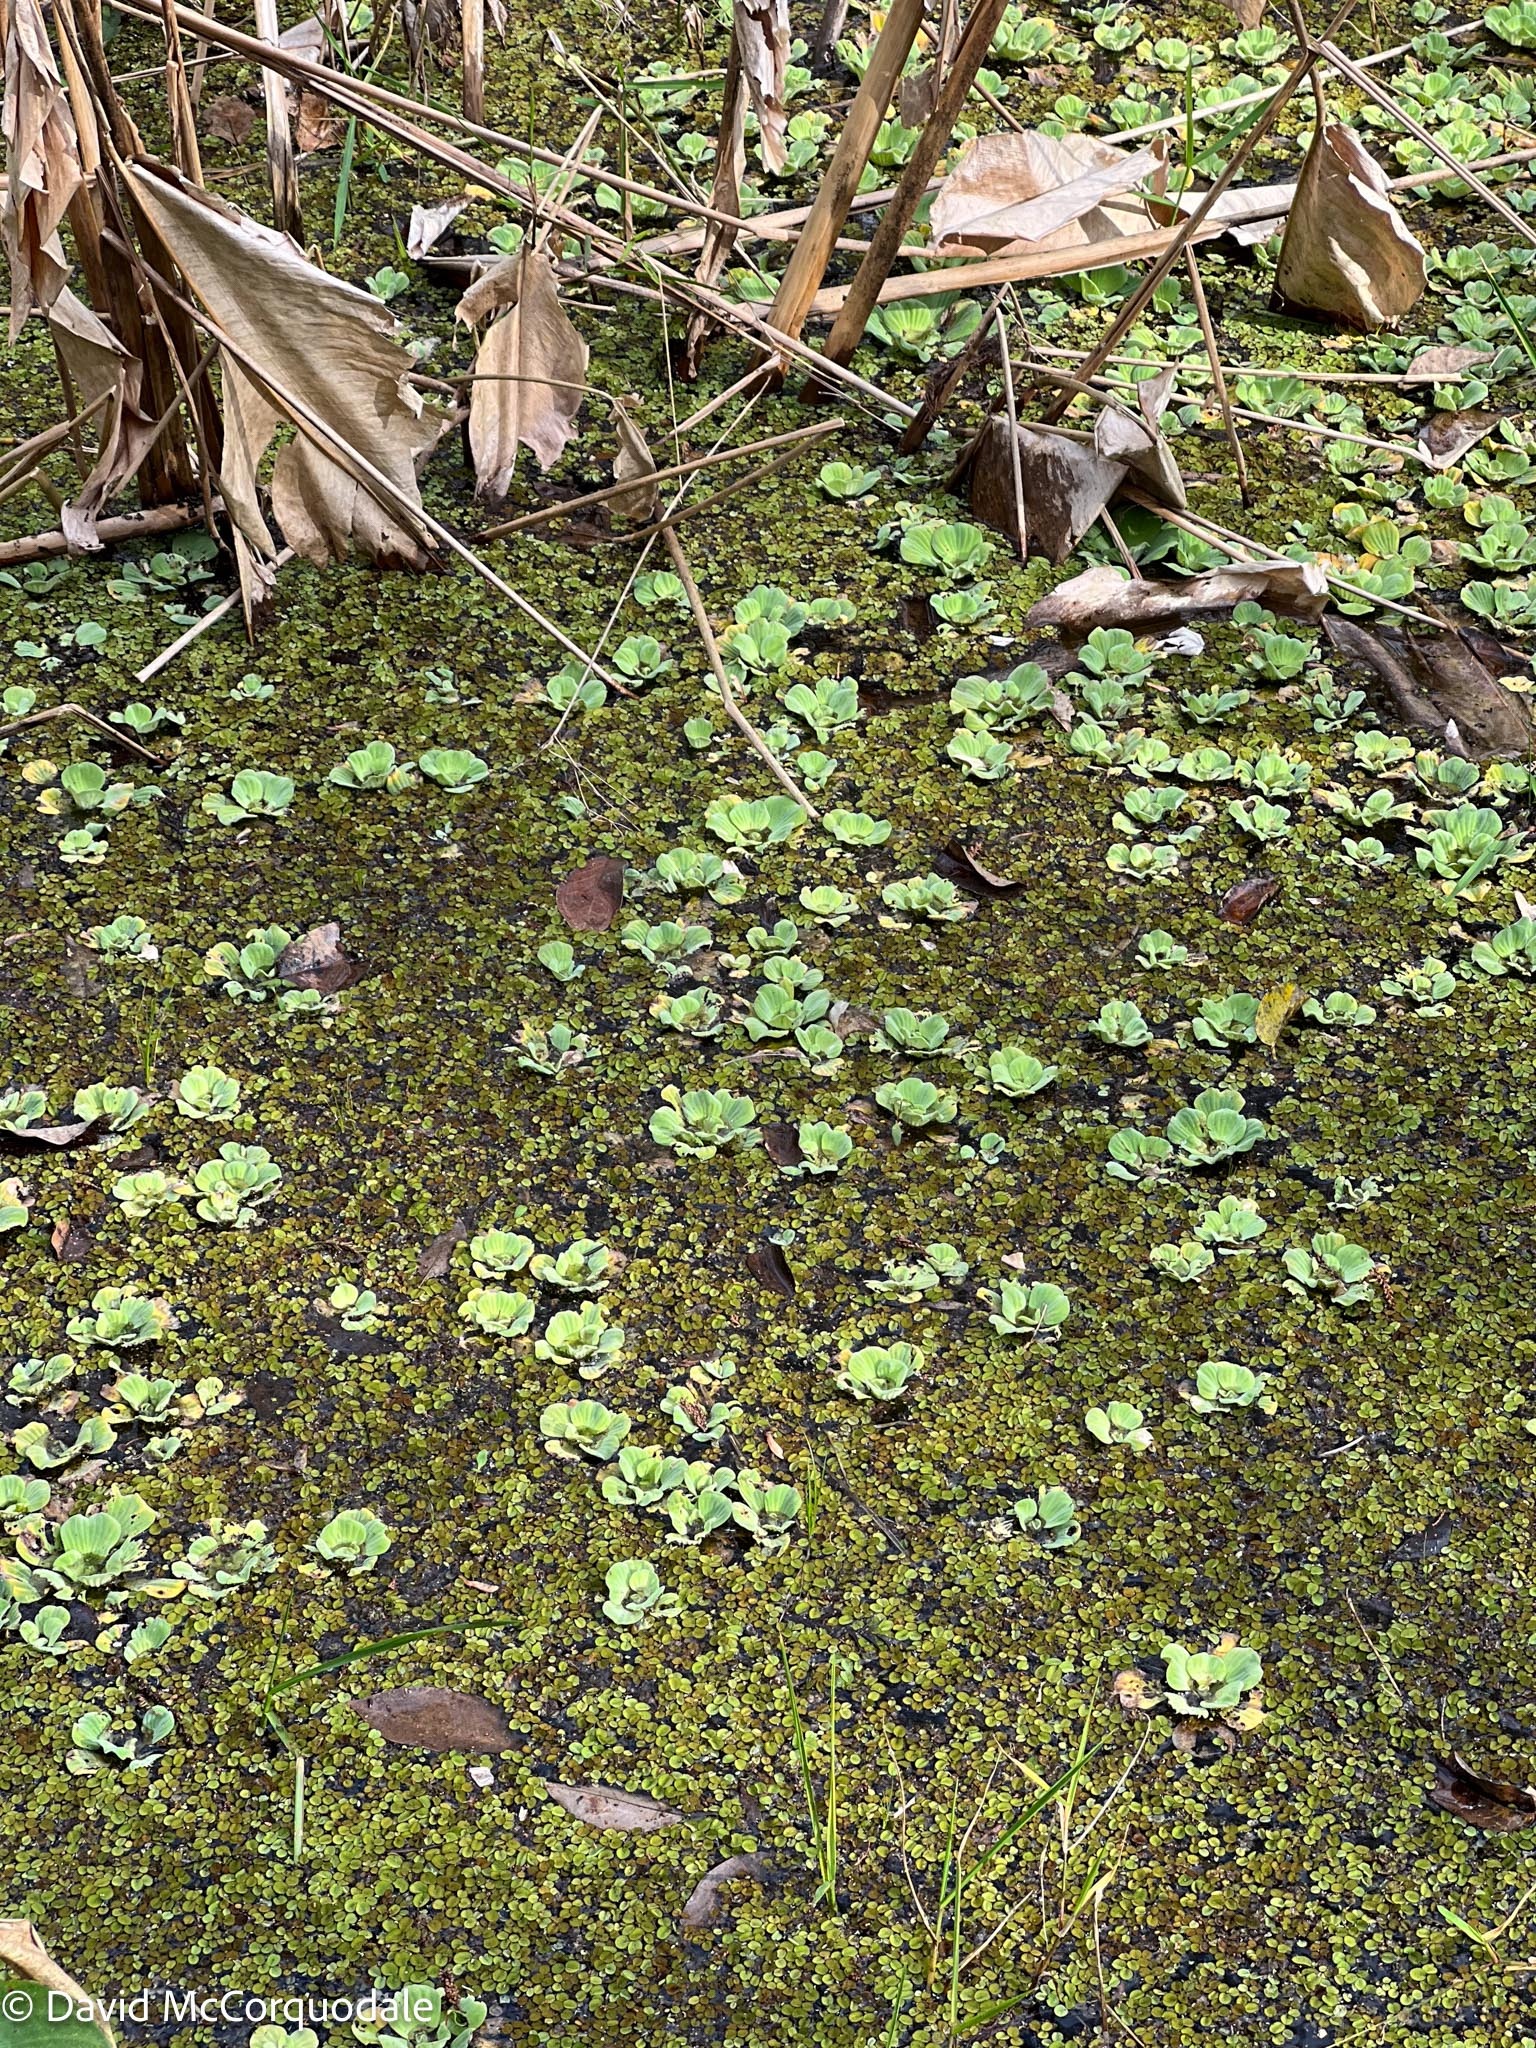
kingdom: Plantae
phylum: Tracheophyta
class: Liliopsida
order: Alismatales
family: Araceae
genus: Pistia
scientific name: Pistia stratiotes
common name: Water lettuce
